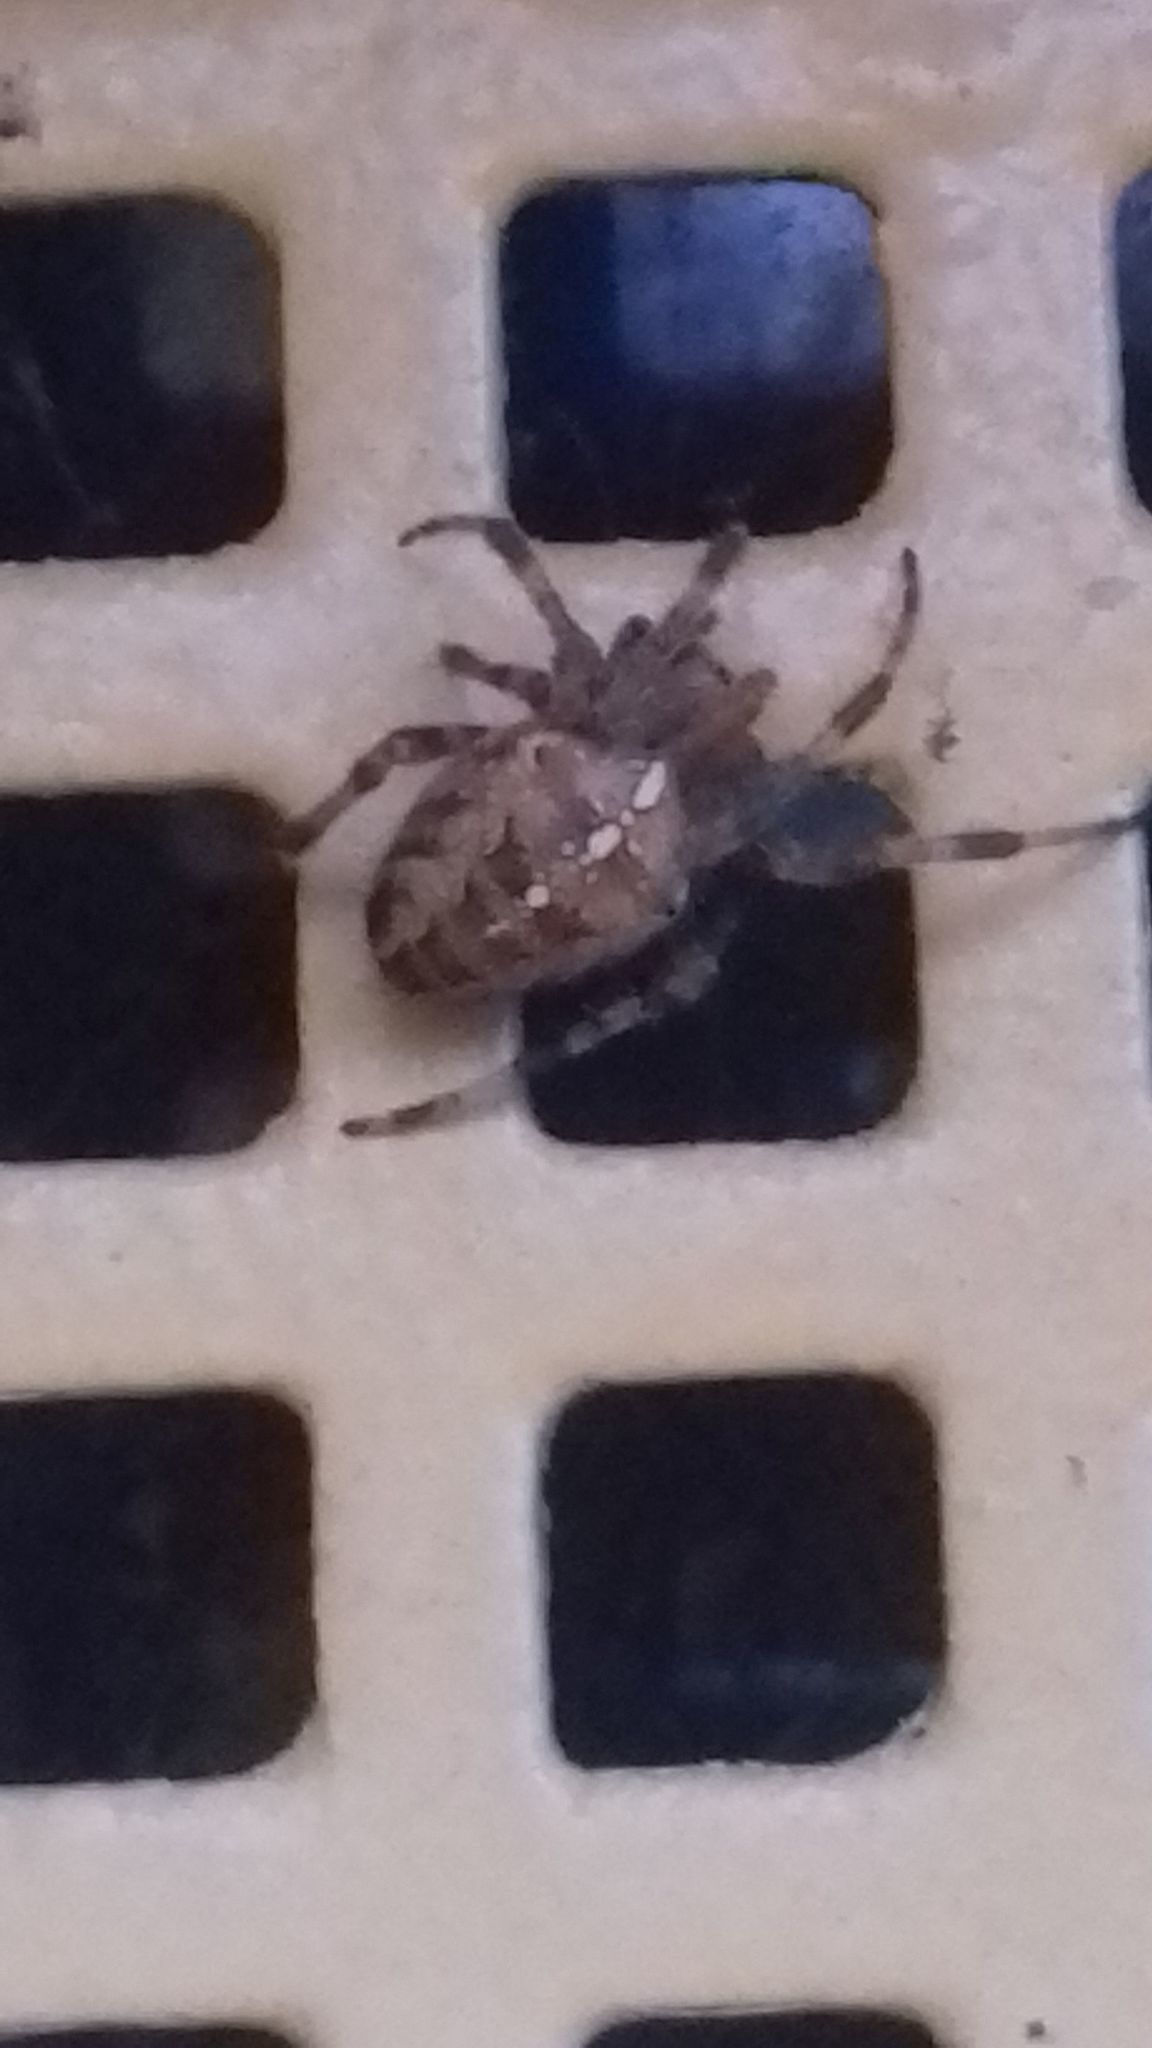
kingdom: Animalia
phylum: Arthropoda
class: Arachnida
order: Araneae
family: Araneidae
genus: Araneus
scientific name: Araneus diadematus
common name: Cross orbweaver
